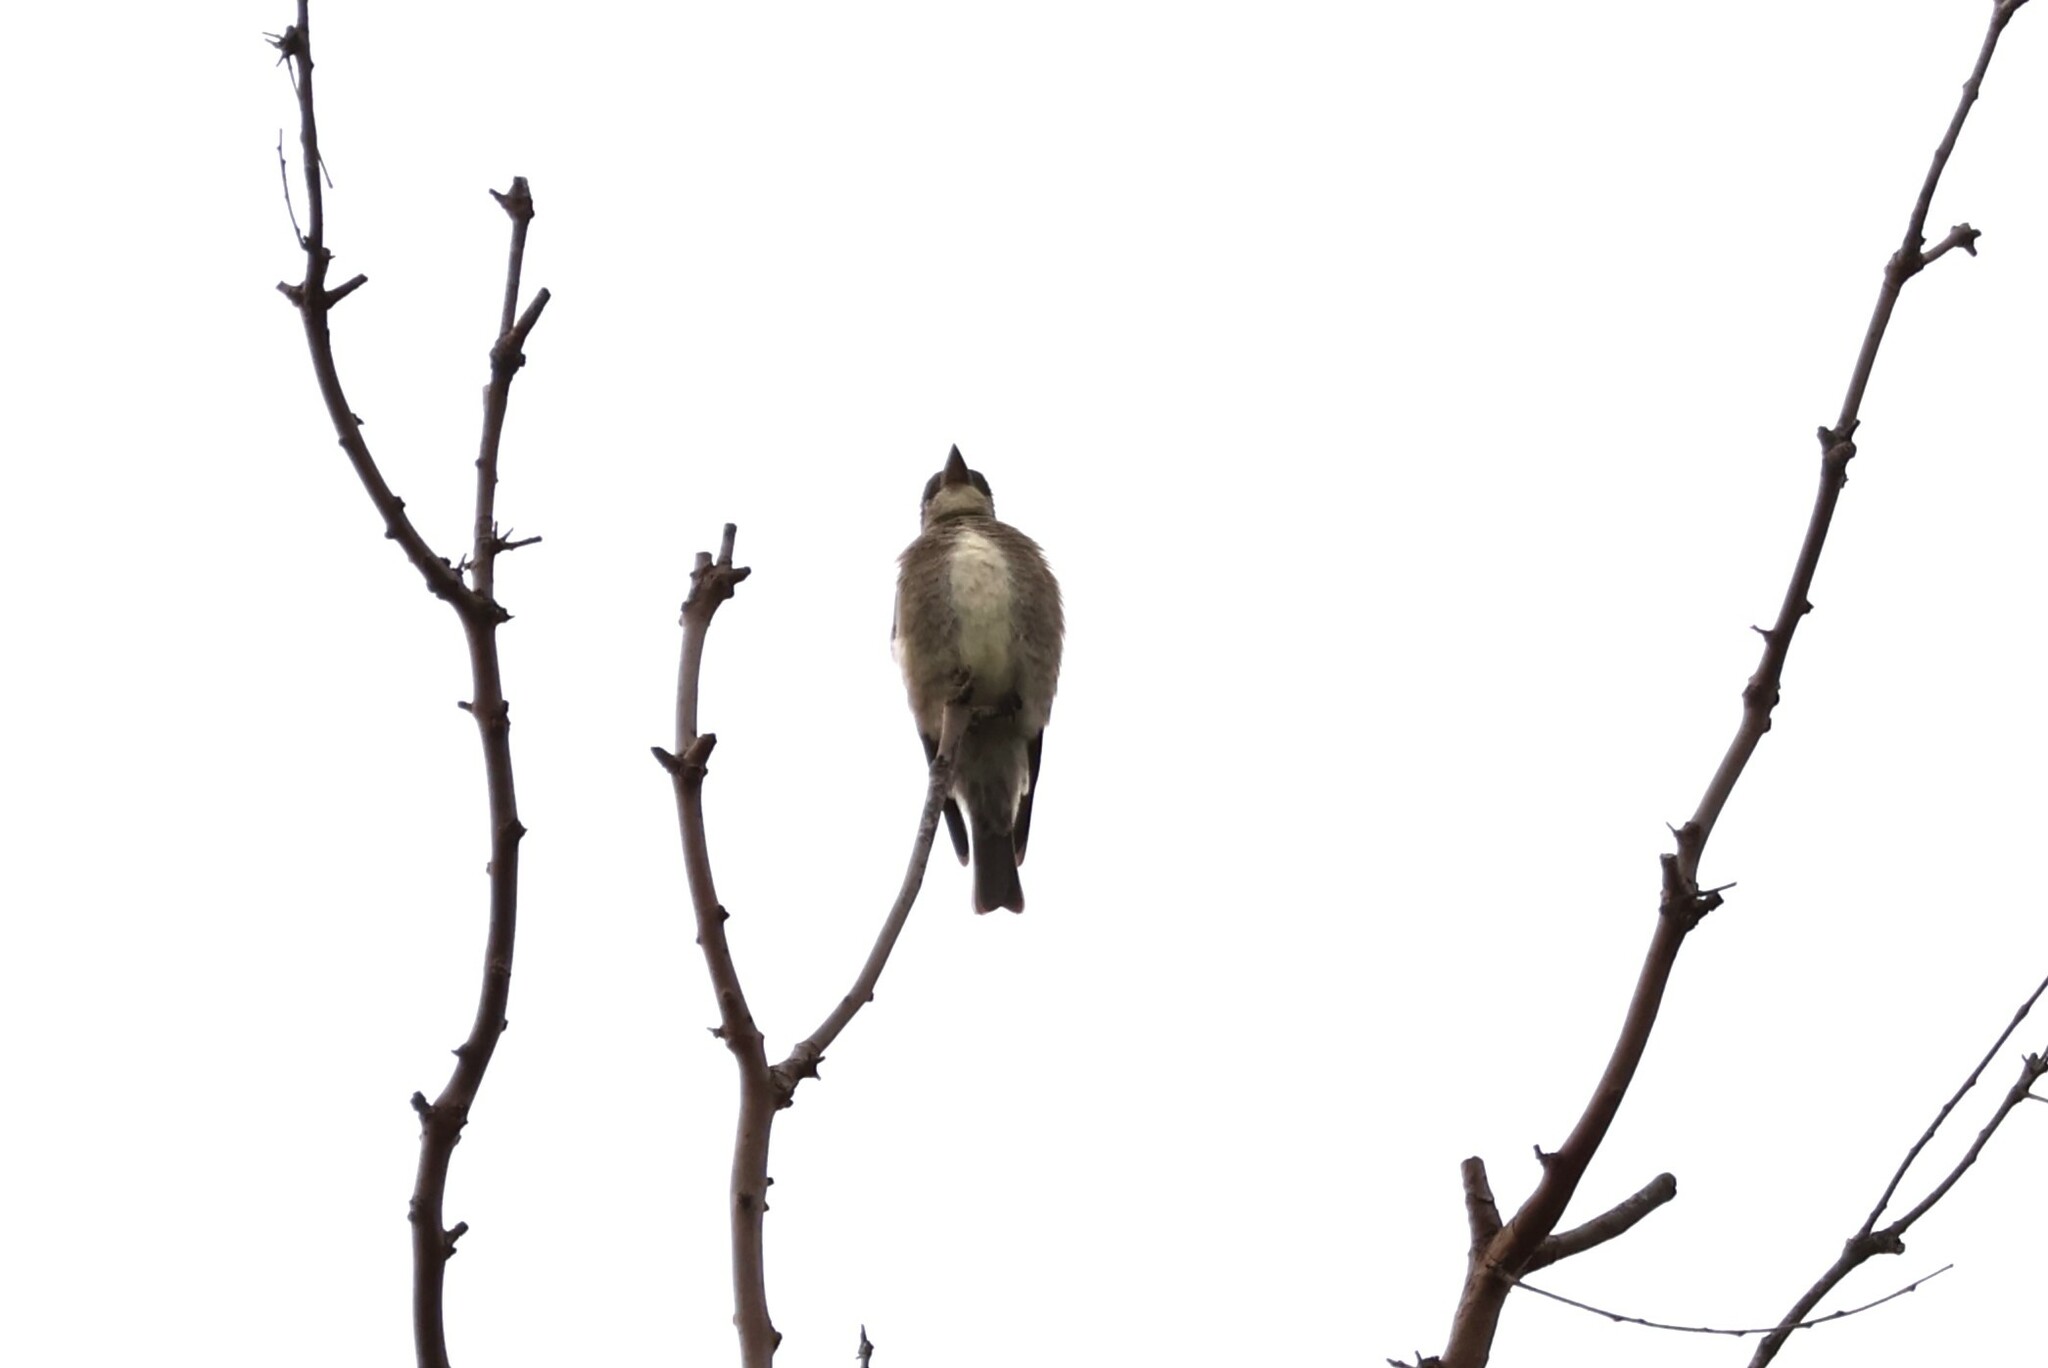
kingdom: Animalia
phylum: Chordata
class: Aves
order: Passeriformes
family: Tyrannidae
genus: Contopus
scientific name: Contopus cooperi
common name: Olive-sided flycatcher
